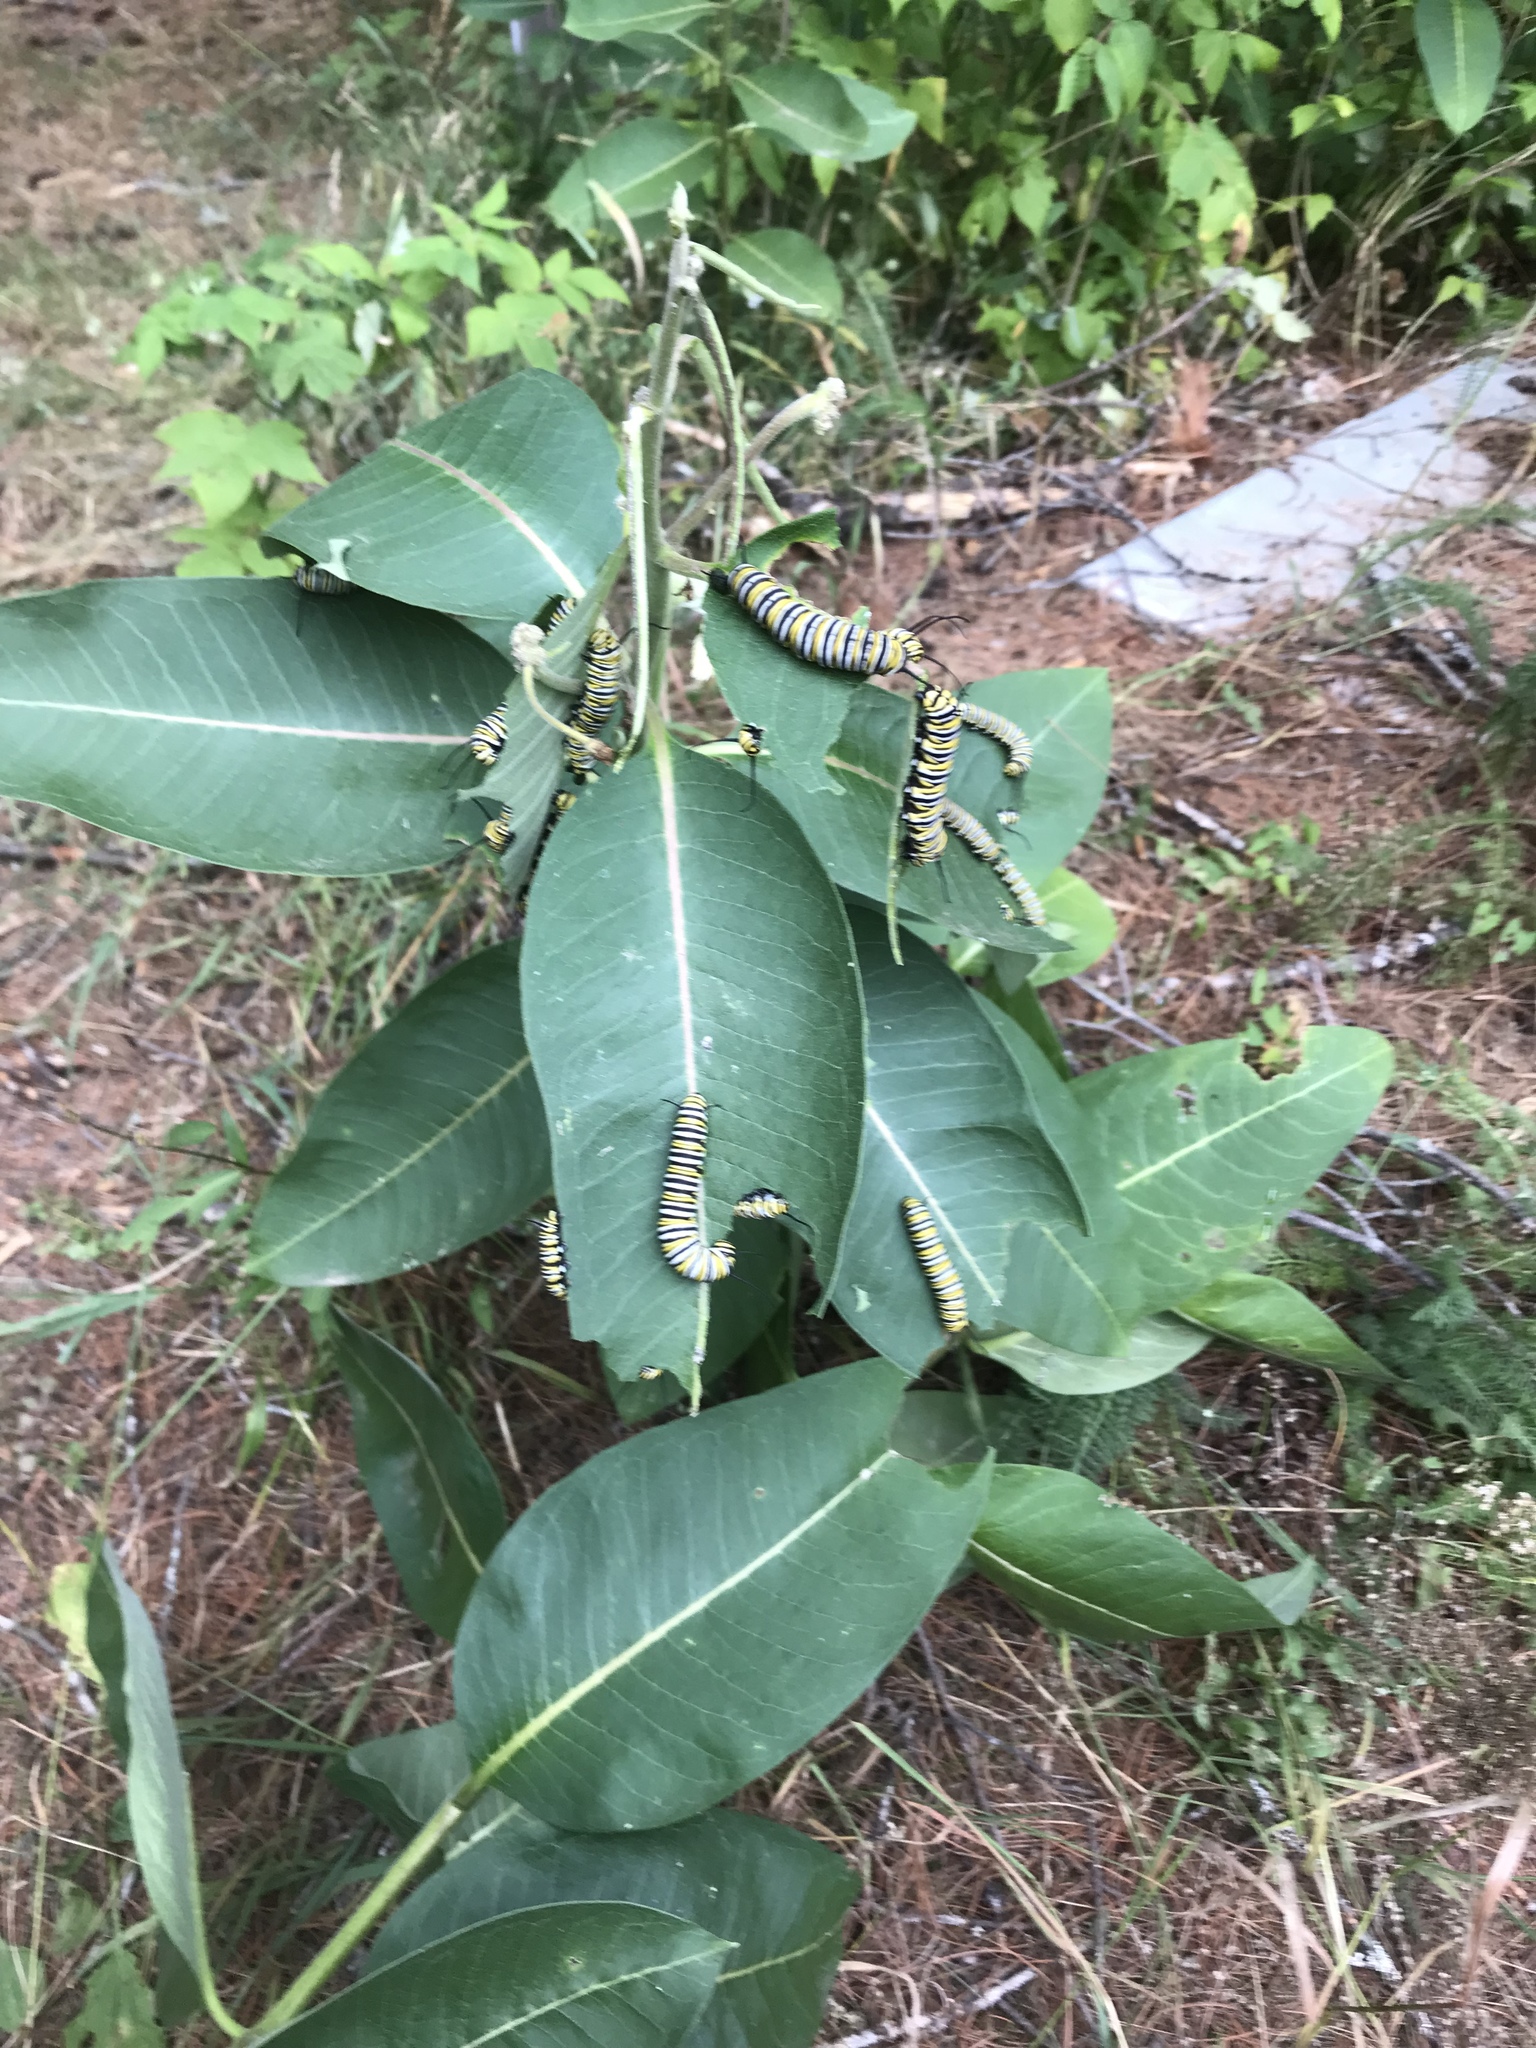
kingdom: Animalia
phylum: Arthropoda
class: Insecta
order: Lepidoptera
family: Nymphalidae
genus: Danaus
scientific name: Danaus plexippus
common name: Monarch
